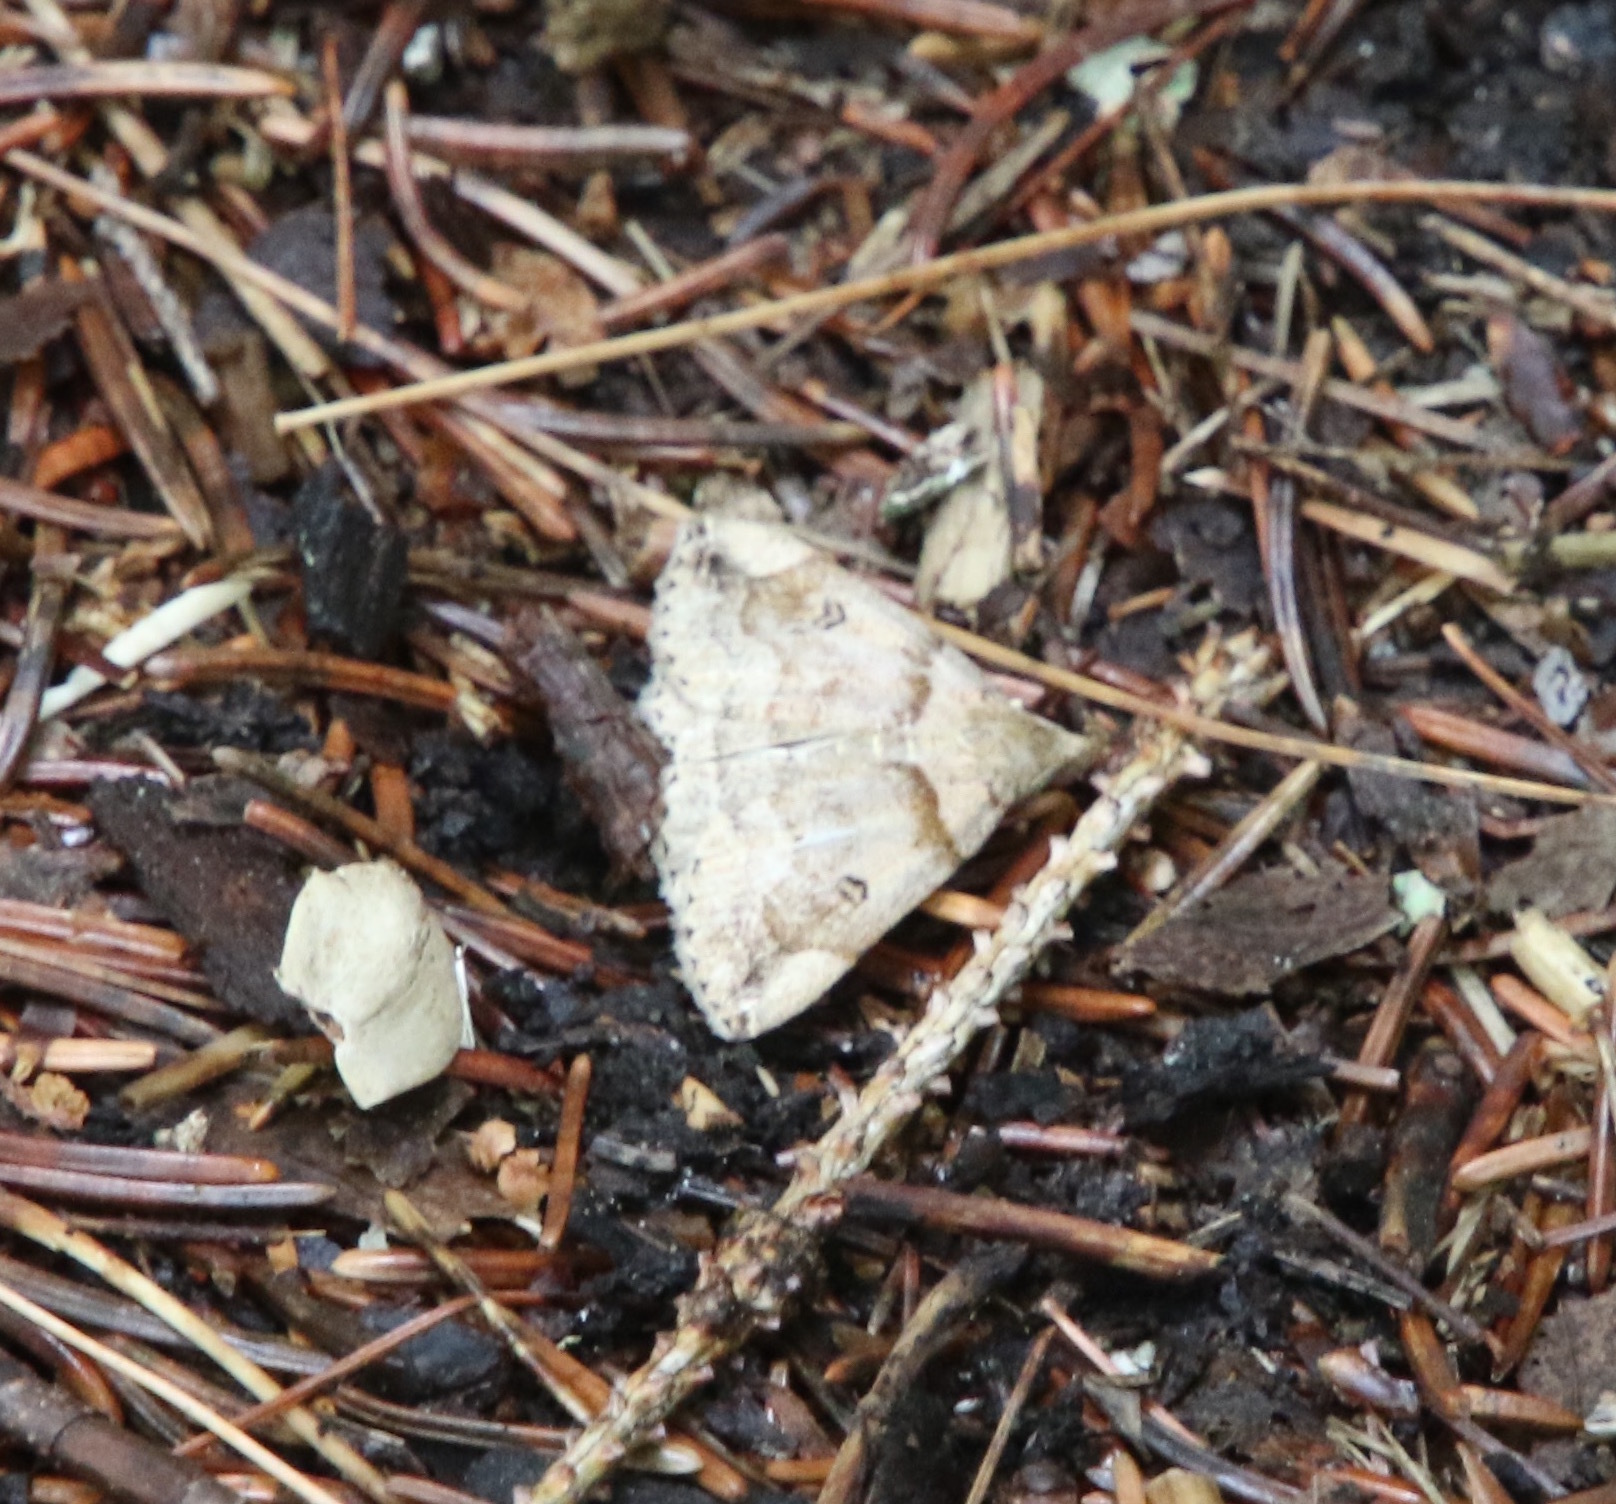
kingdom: Animalia
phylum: Arthropoda
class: Insecta
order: Lepidoptera
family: Erebidae
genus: Zanclognatha
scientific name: Zanclognatha laevigata
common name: Variable fan-foot
